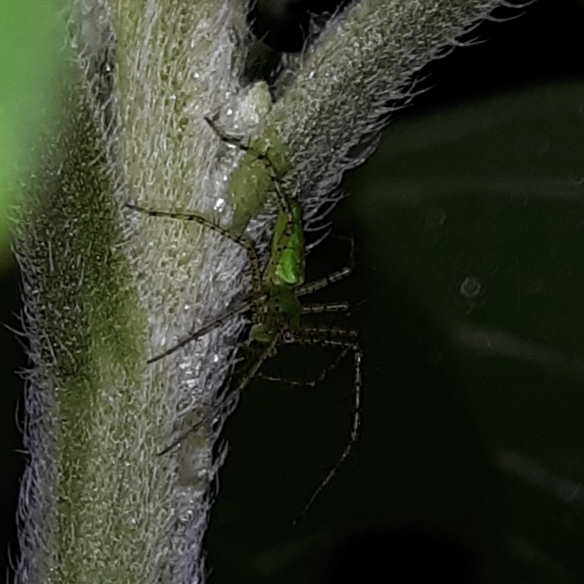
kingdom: Animalia
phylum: Arthropoda
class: Arachnida
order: Araneae
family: Oxyopidae
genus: Peucetia
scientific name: Peucetia viridans
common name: Lynx spiders
